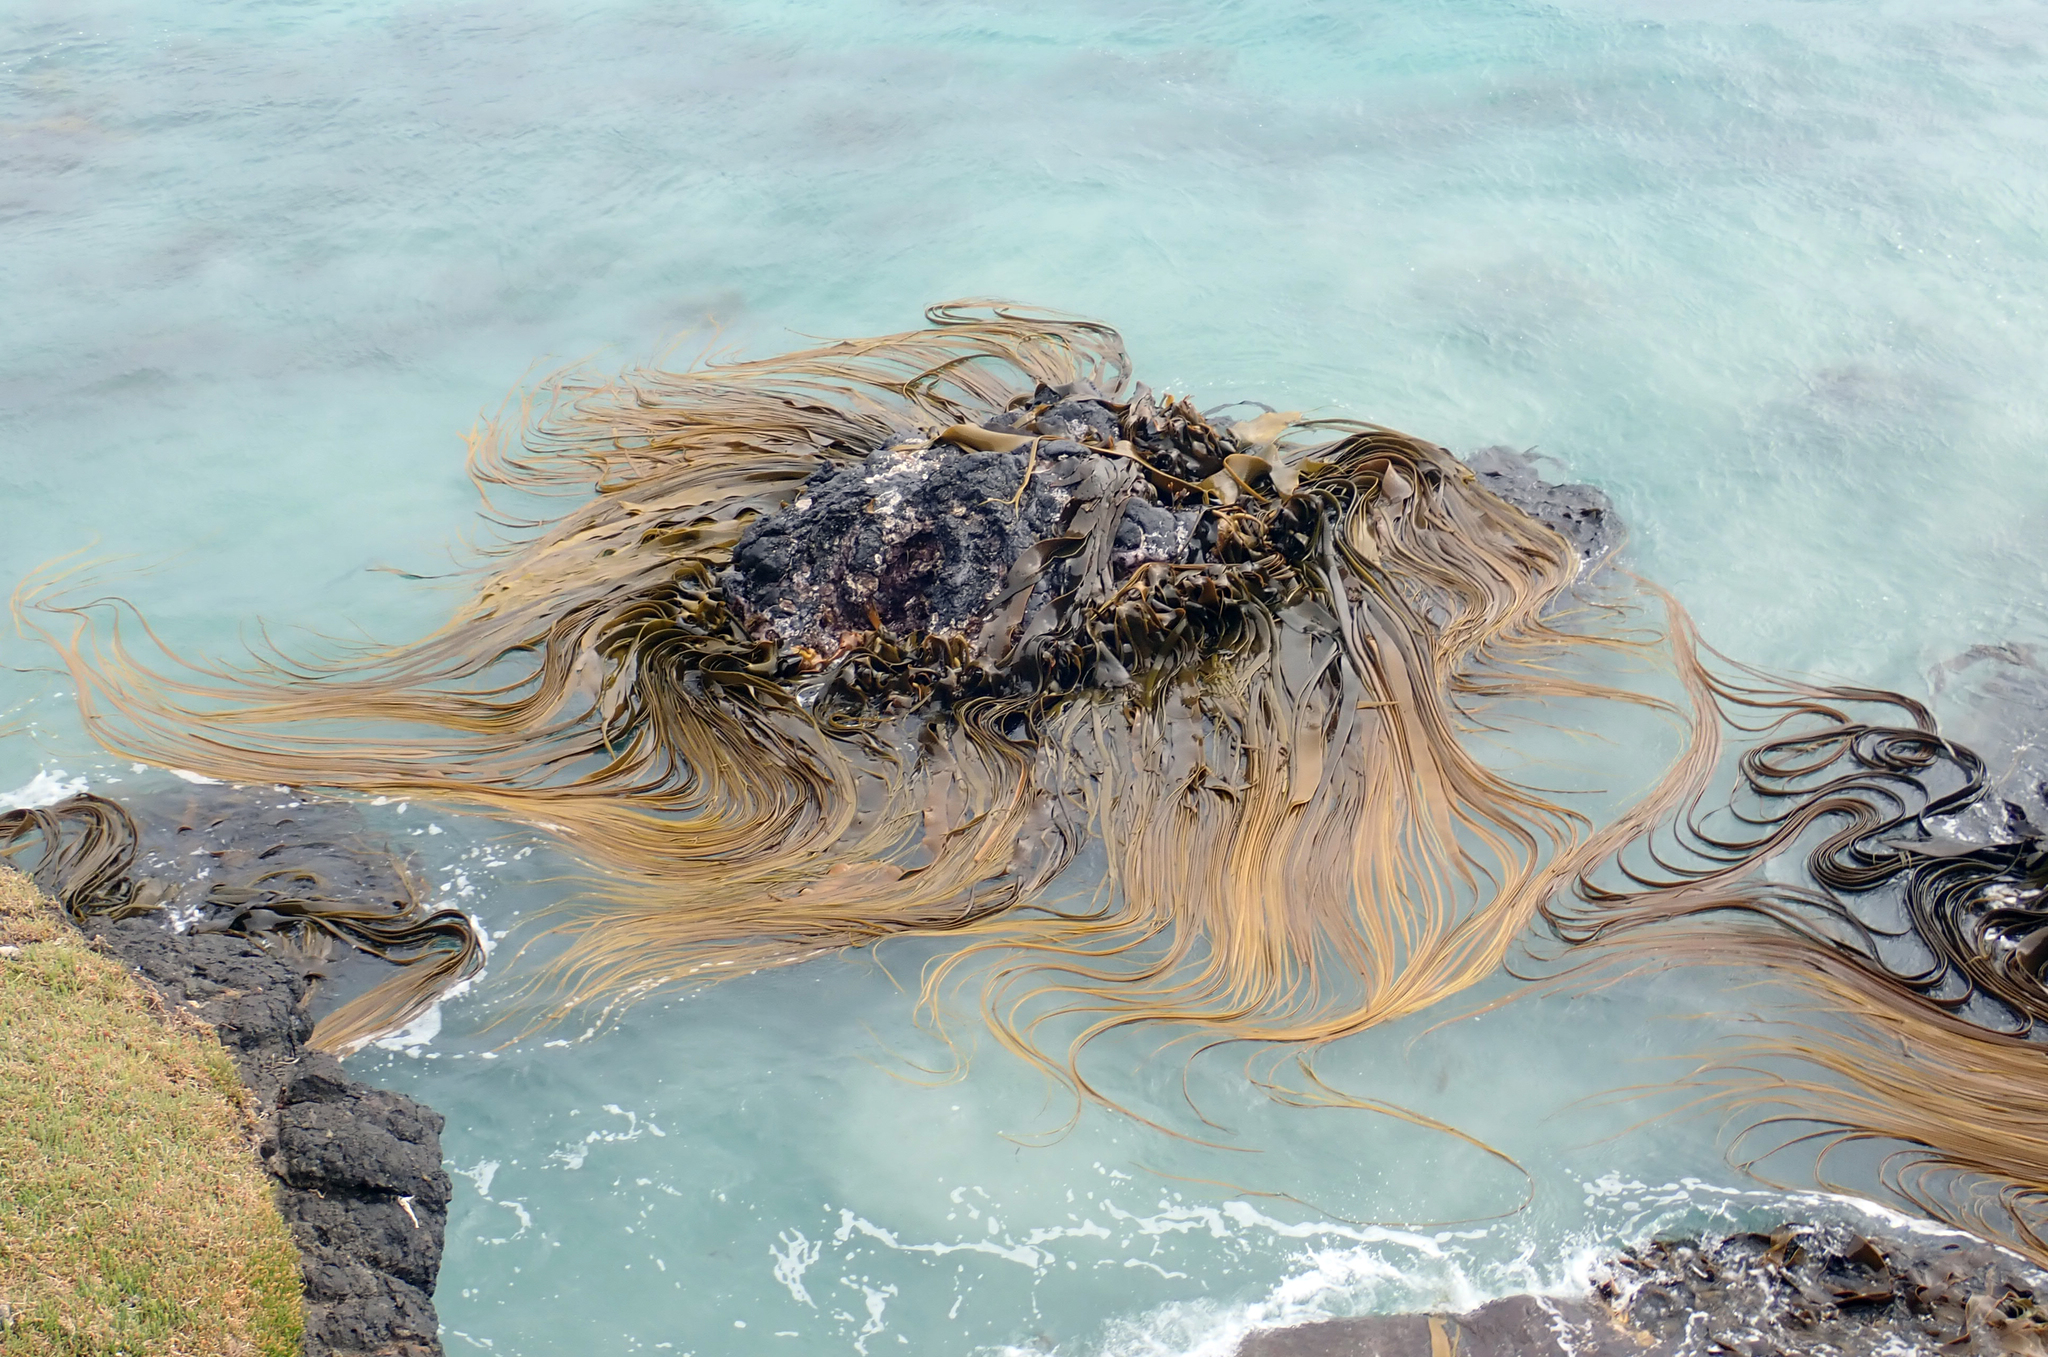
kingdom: Chromista
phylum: Ochrophyta
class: Phaeophyceae
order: Fucales
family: Durvillaeaceae
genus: Durvillaea
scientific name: Durvillaea antarctica
